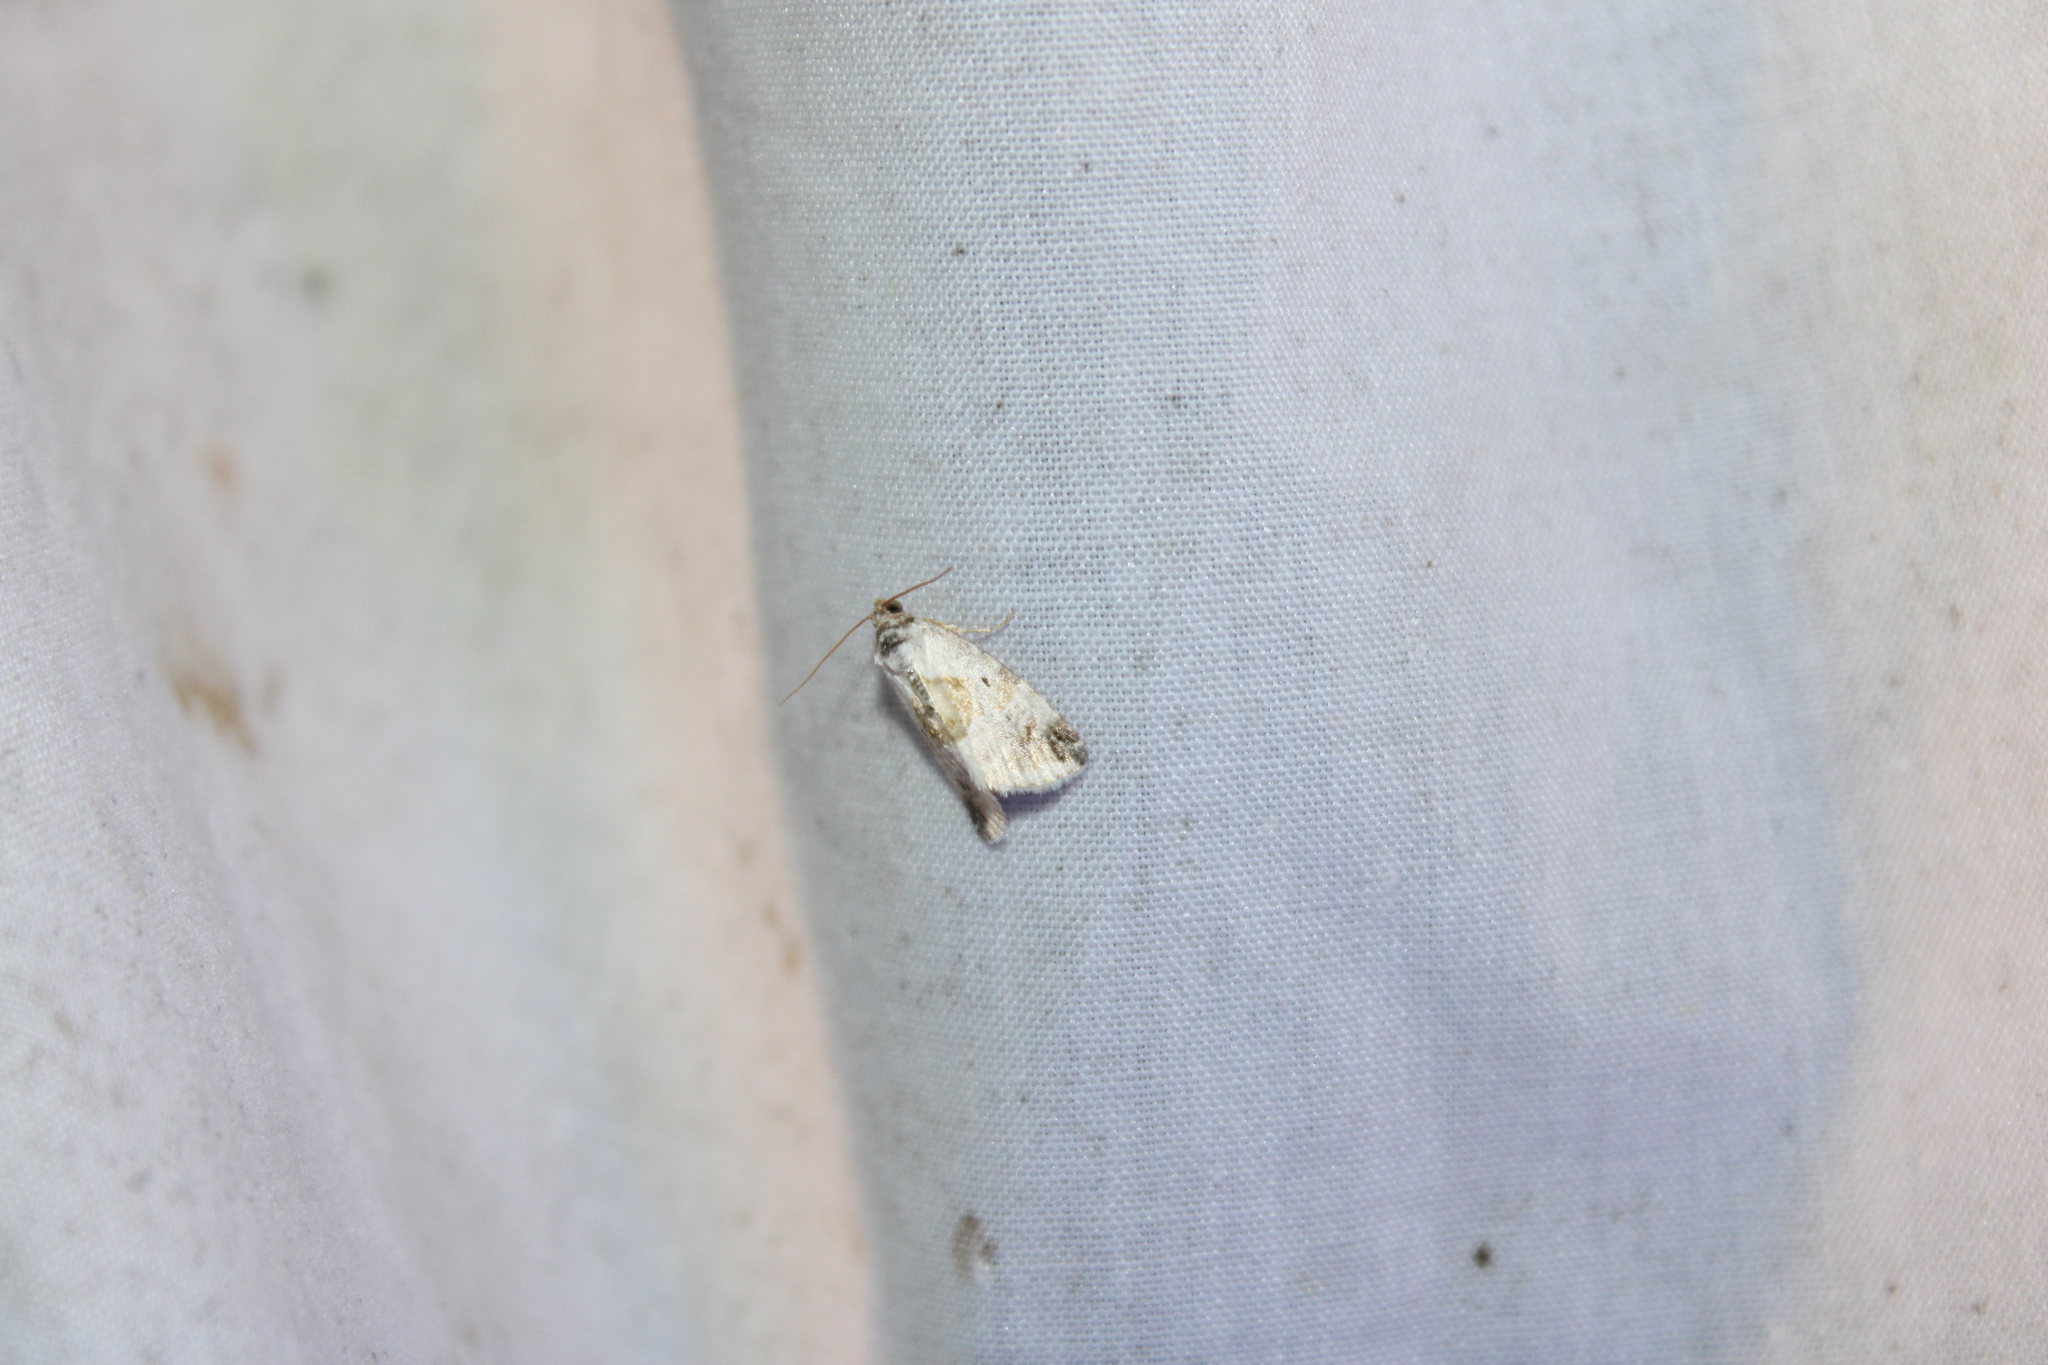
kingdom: Animalia
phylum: Arthropoda
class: Insecta
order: Lepidoptera
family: Noctuidae
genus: Maliattha
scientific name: Maliattha synochitis
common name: Black-dotted glyph
